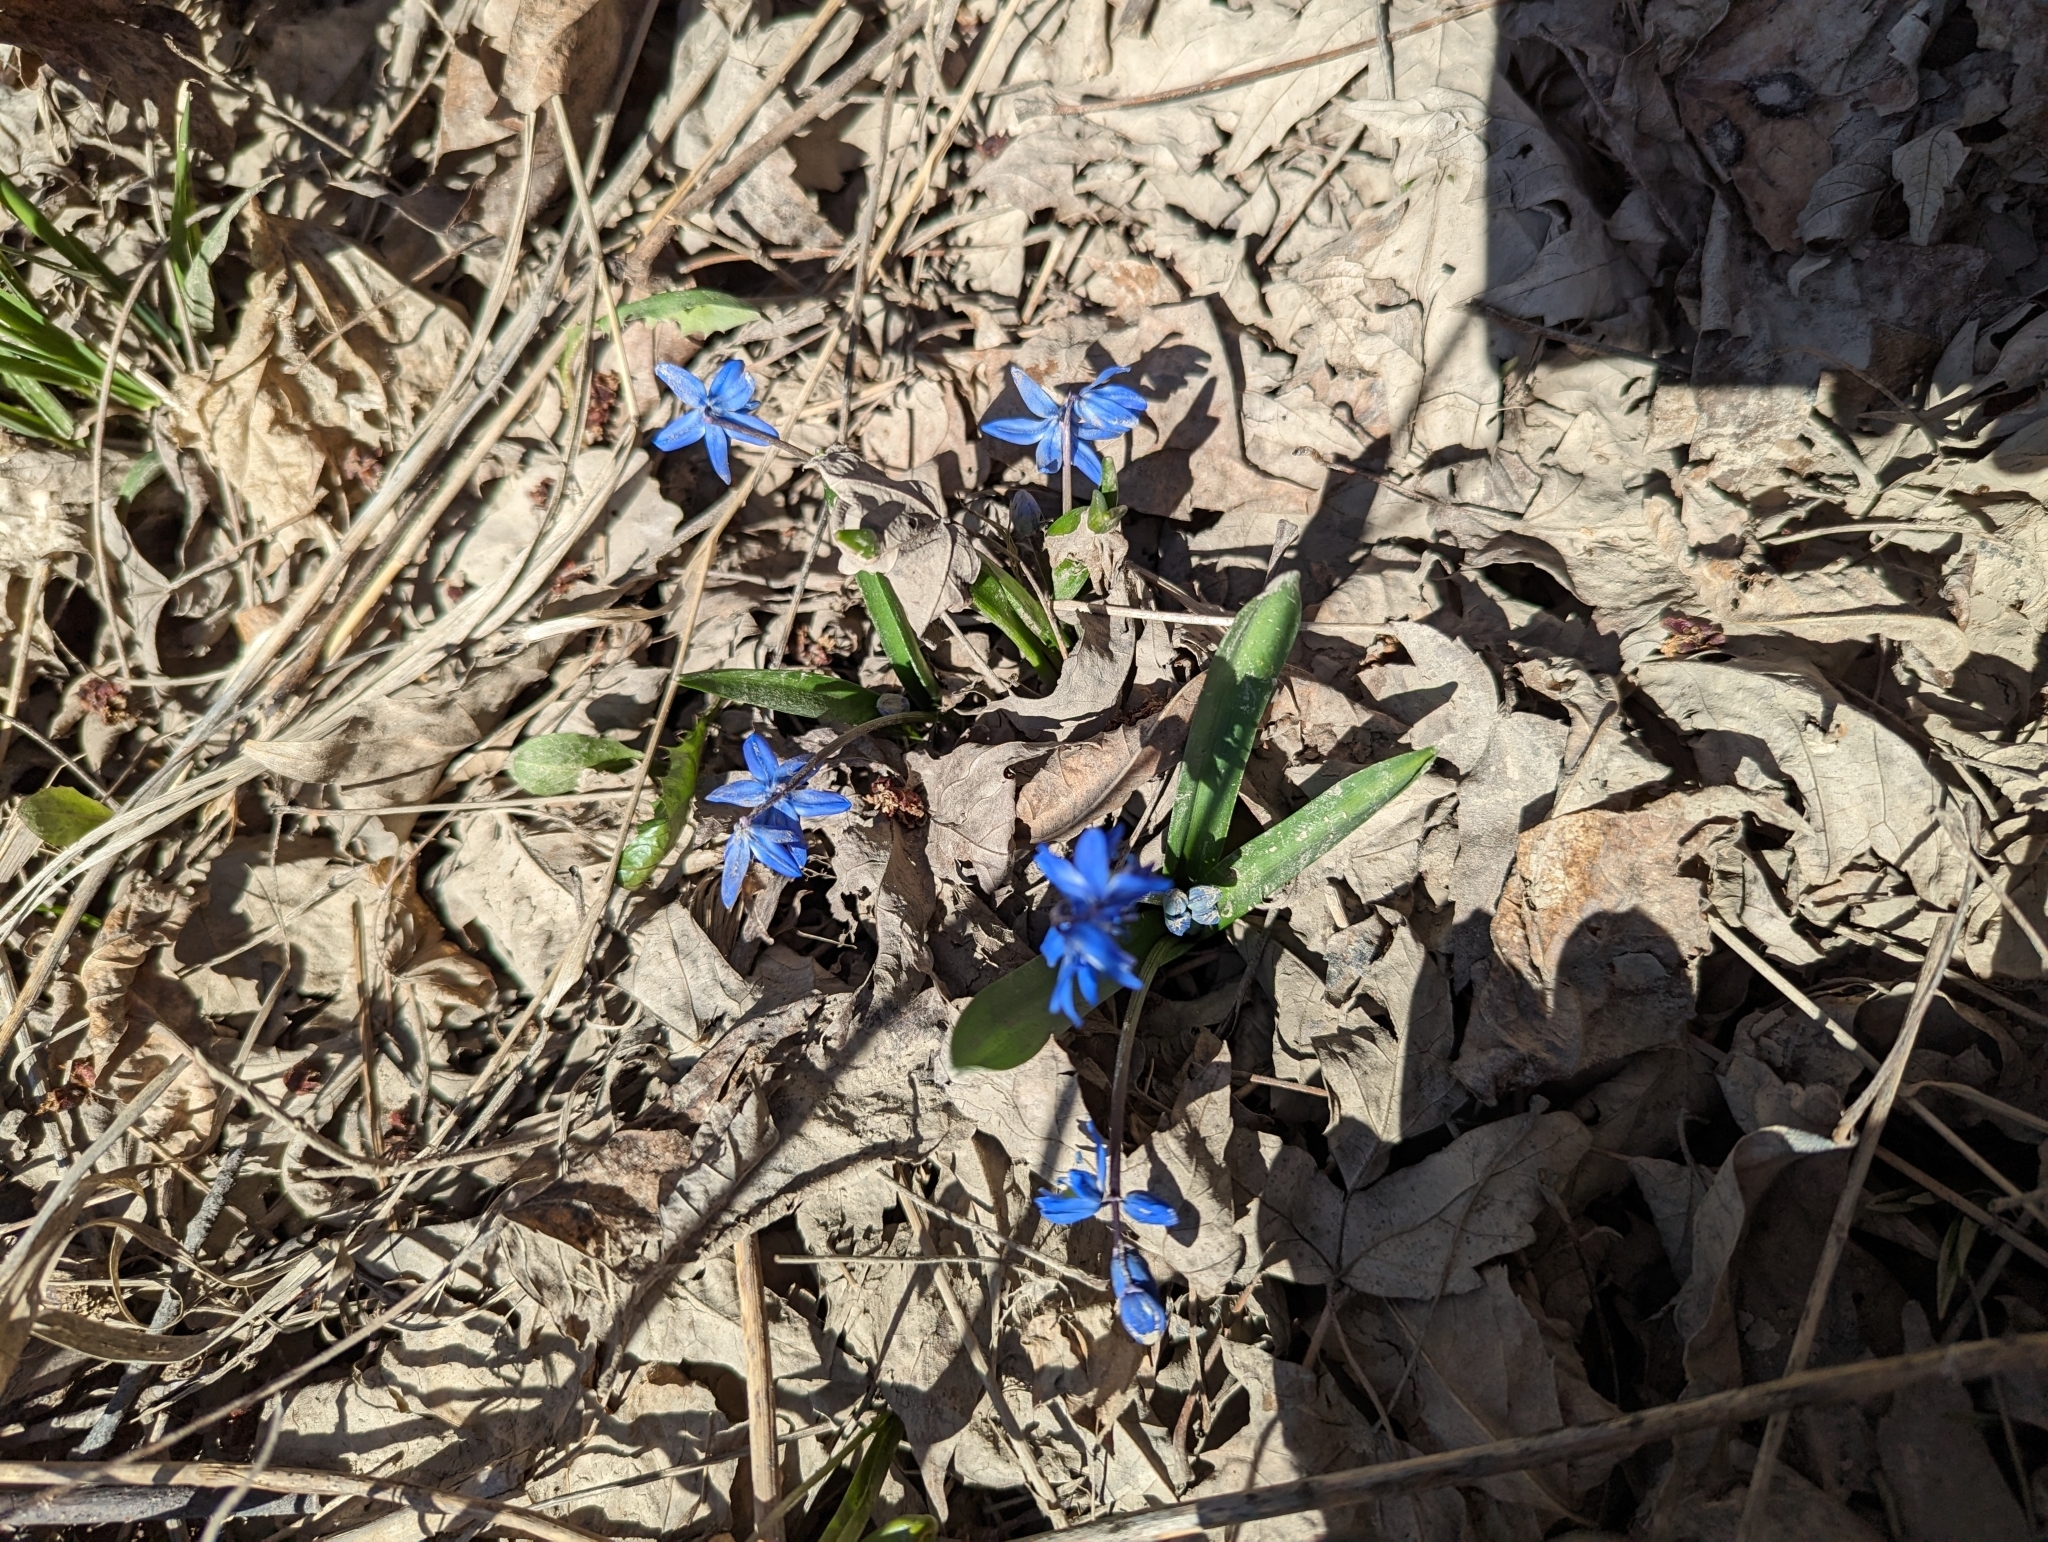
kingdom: Plantae
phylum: Tracheophyta
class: Liliopsida
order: Asparagales
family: Asparagaceae
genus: Scilla
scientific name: Scilla siberica
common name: Siberian squill
